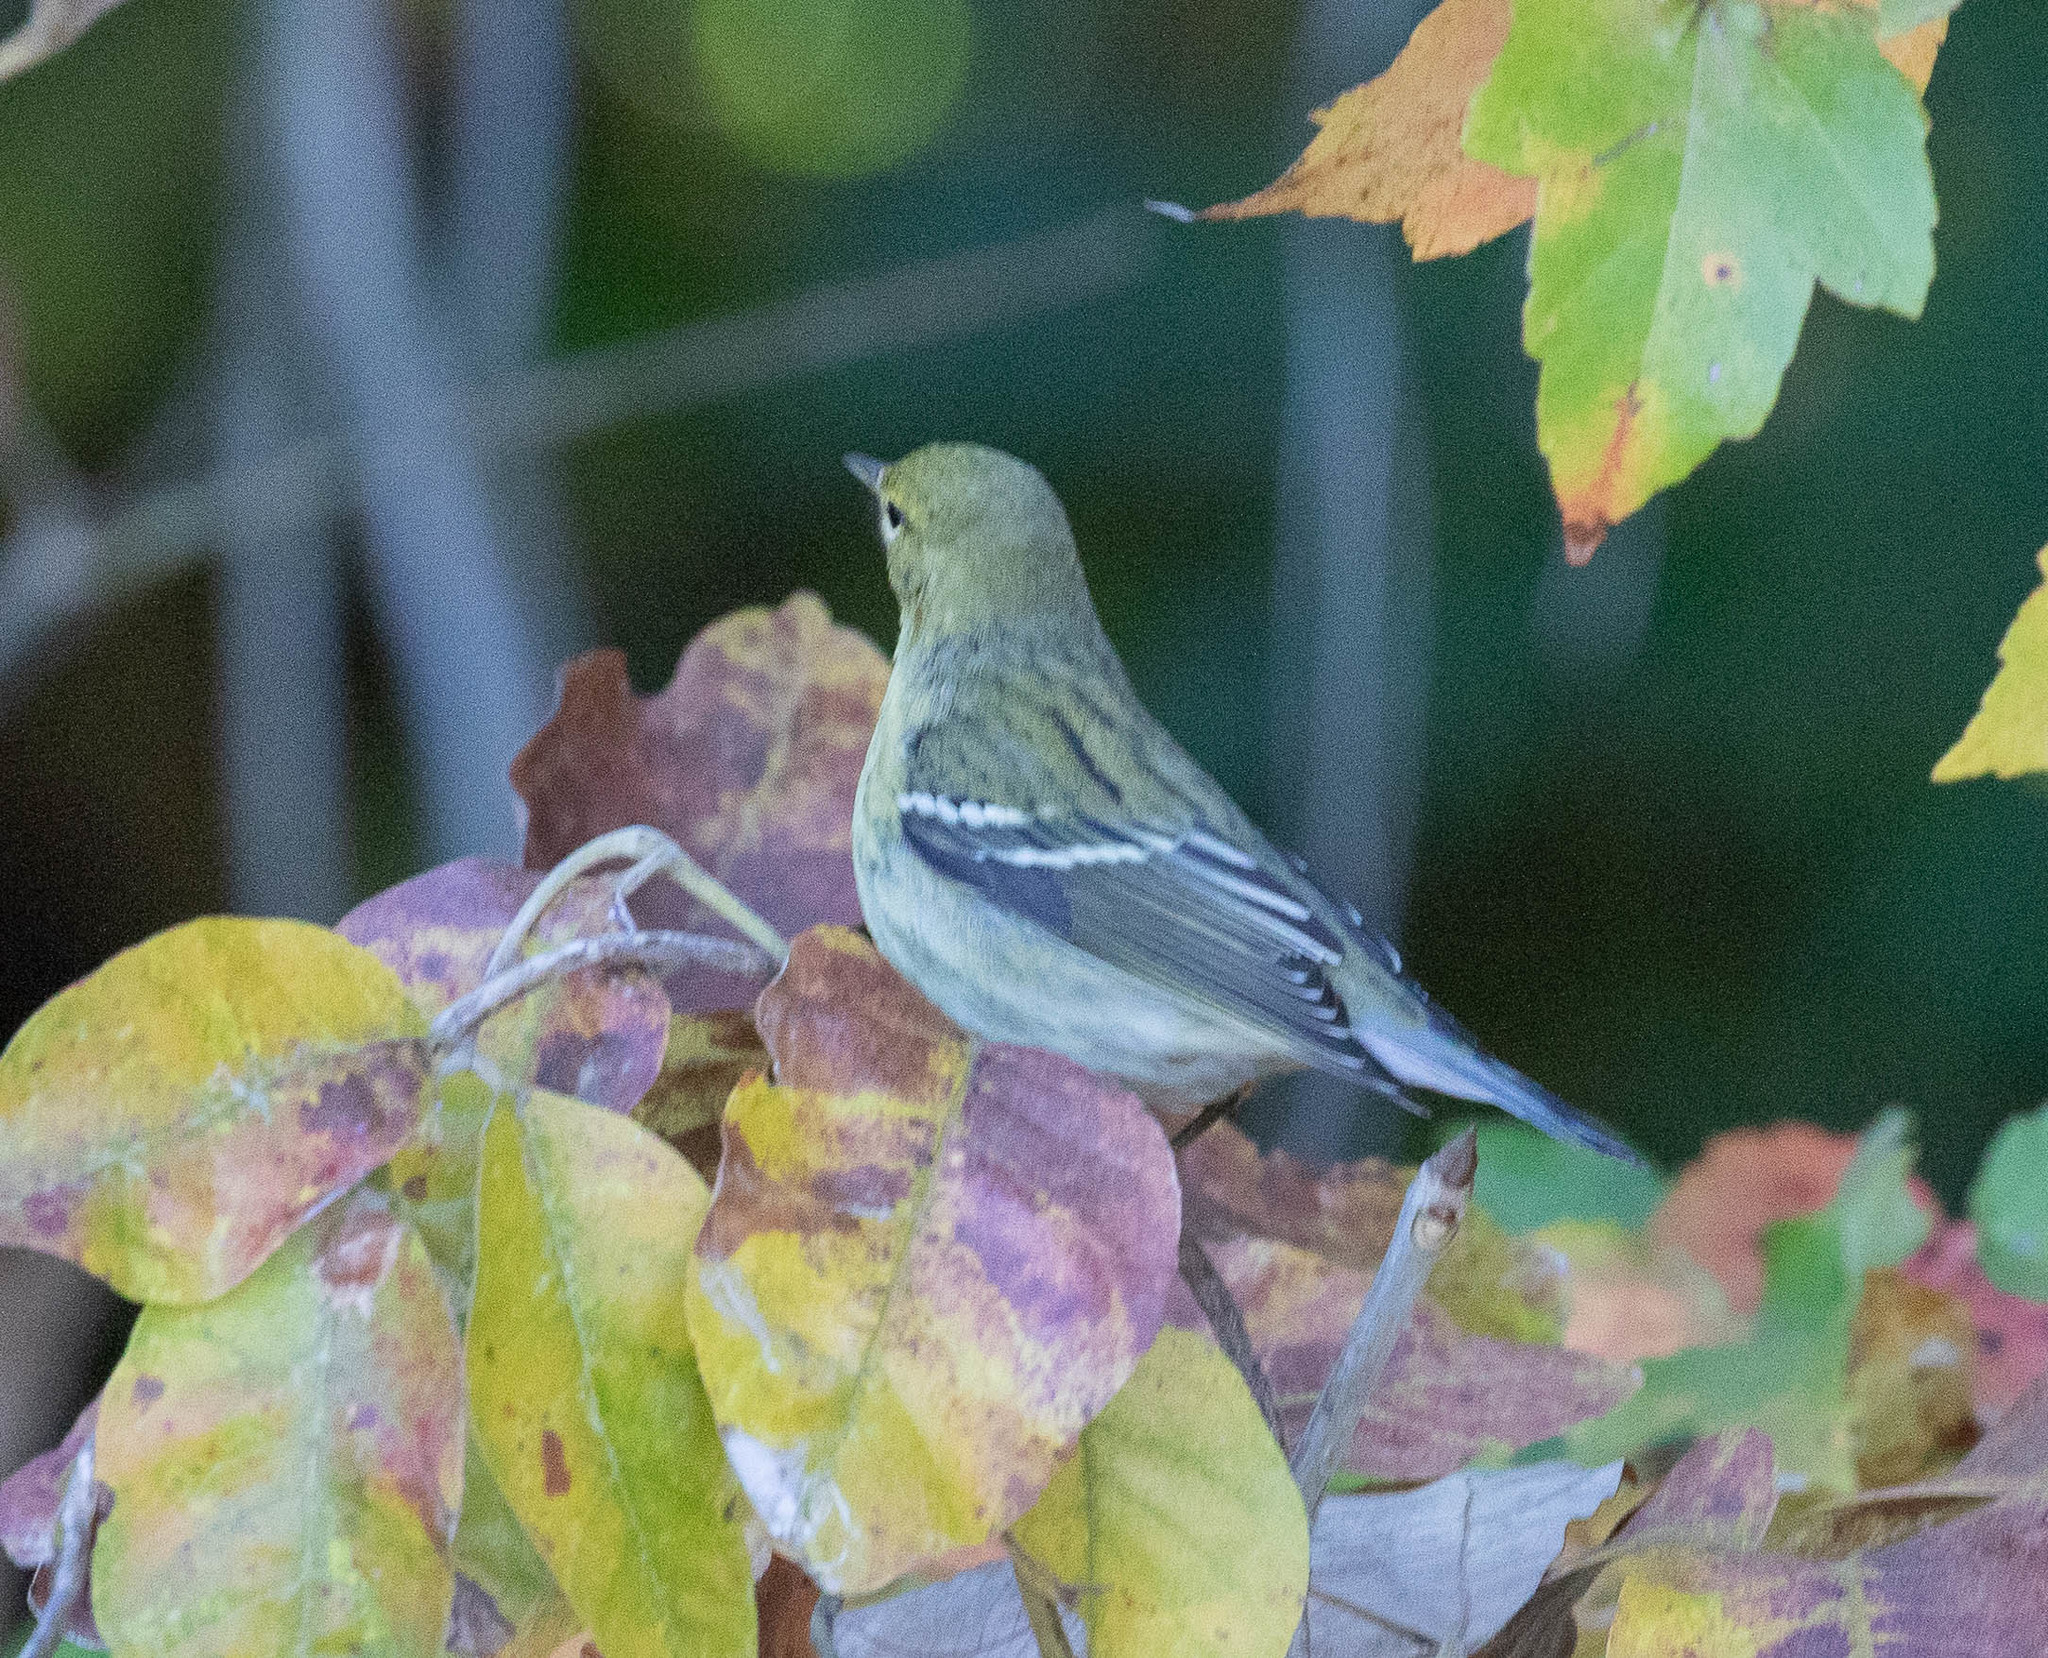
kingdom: Animalia
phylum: Chordata
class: Aves
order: Passeriformes
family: Parulidae
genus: Setophaga
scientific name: Setophaga striata
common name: Blackpoll warbler
